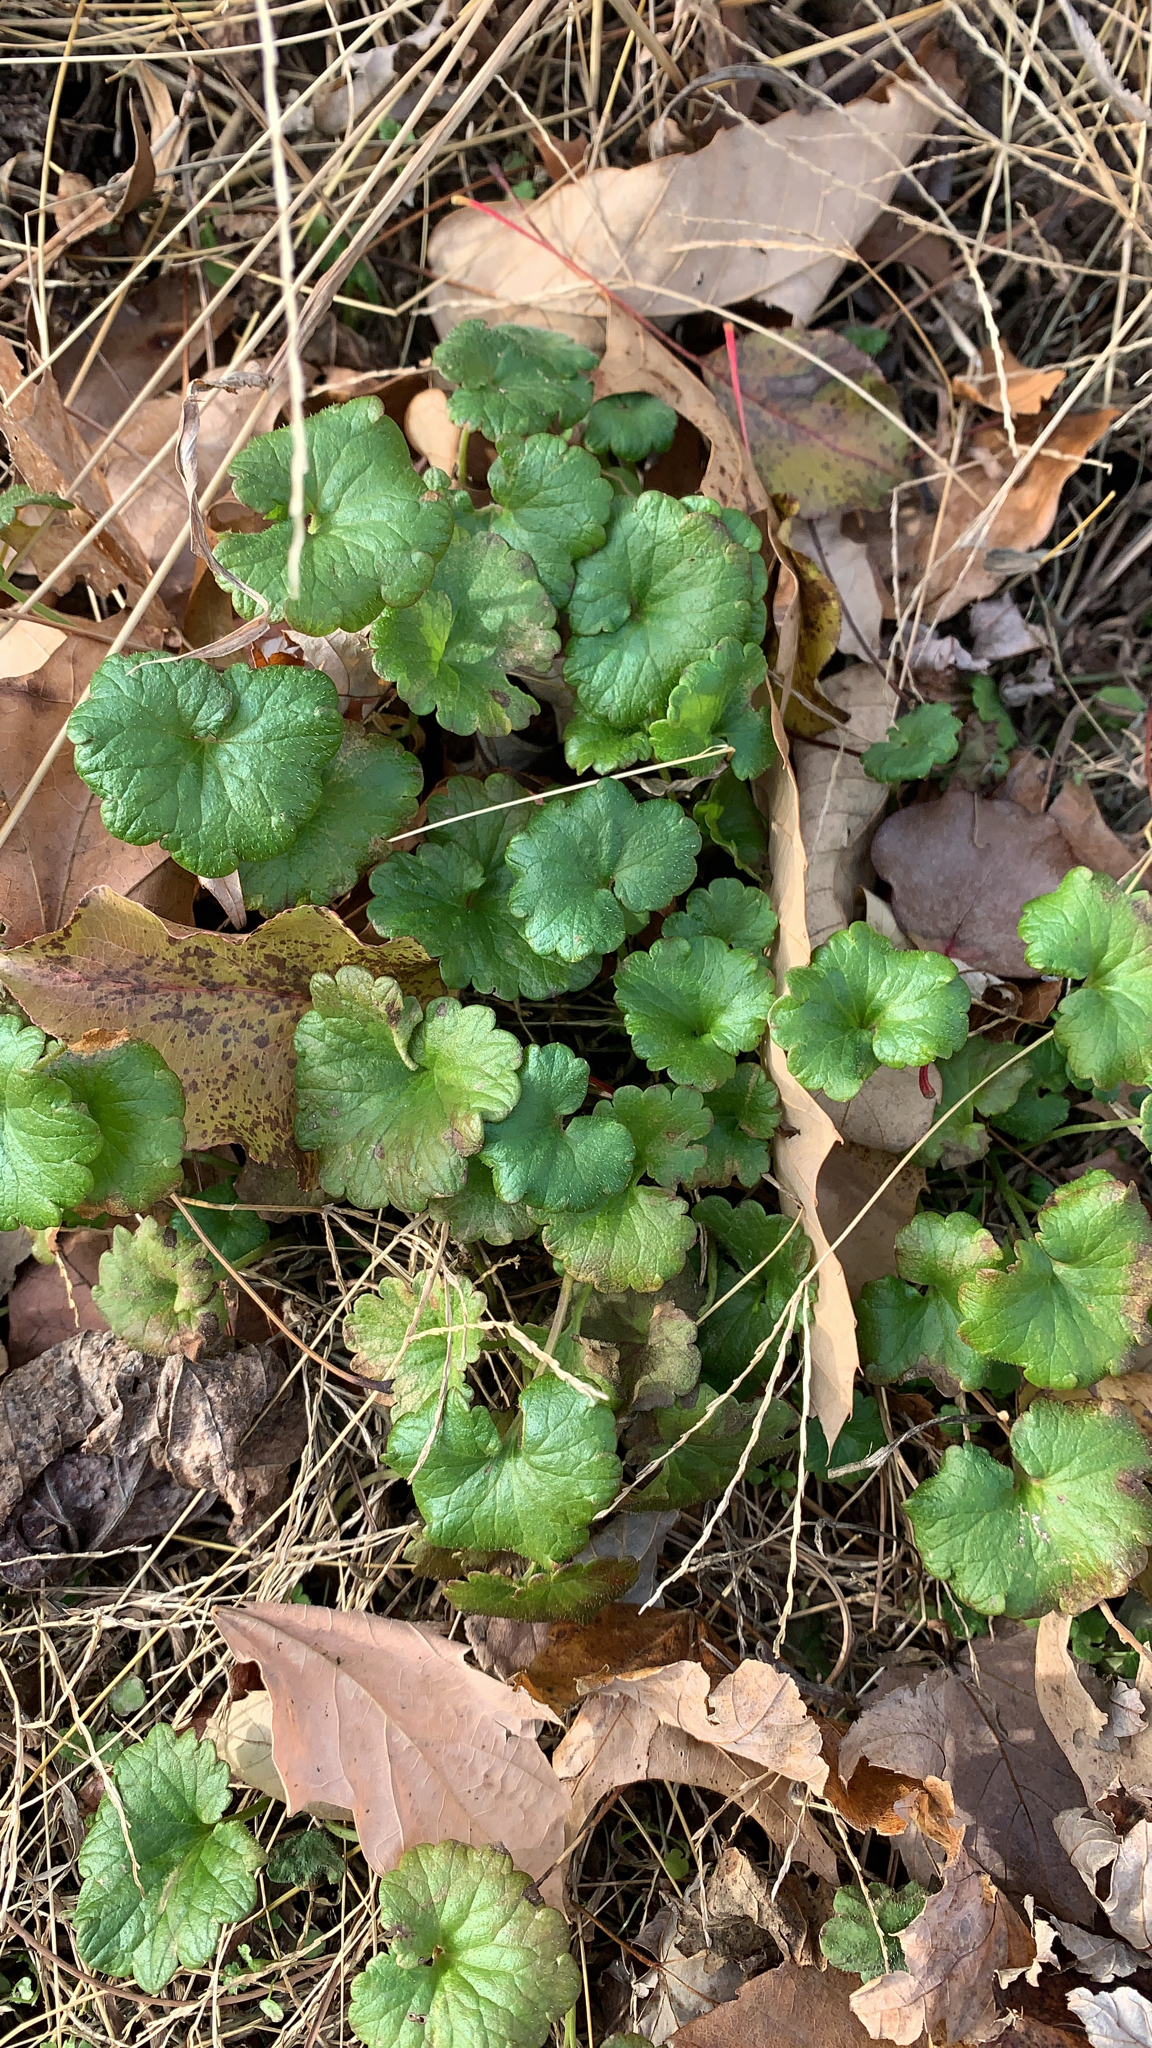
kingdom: Plantae
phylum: Tracheophyta
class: Magnoliopsida
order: Lamiales
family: Lamiaceae
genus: Glechoma
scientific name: Glechoma hederacea
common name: Ground ivy
